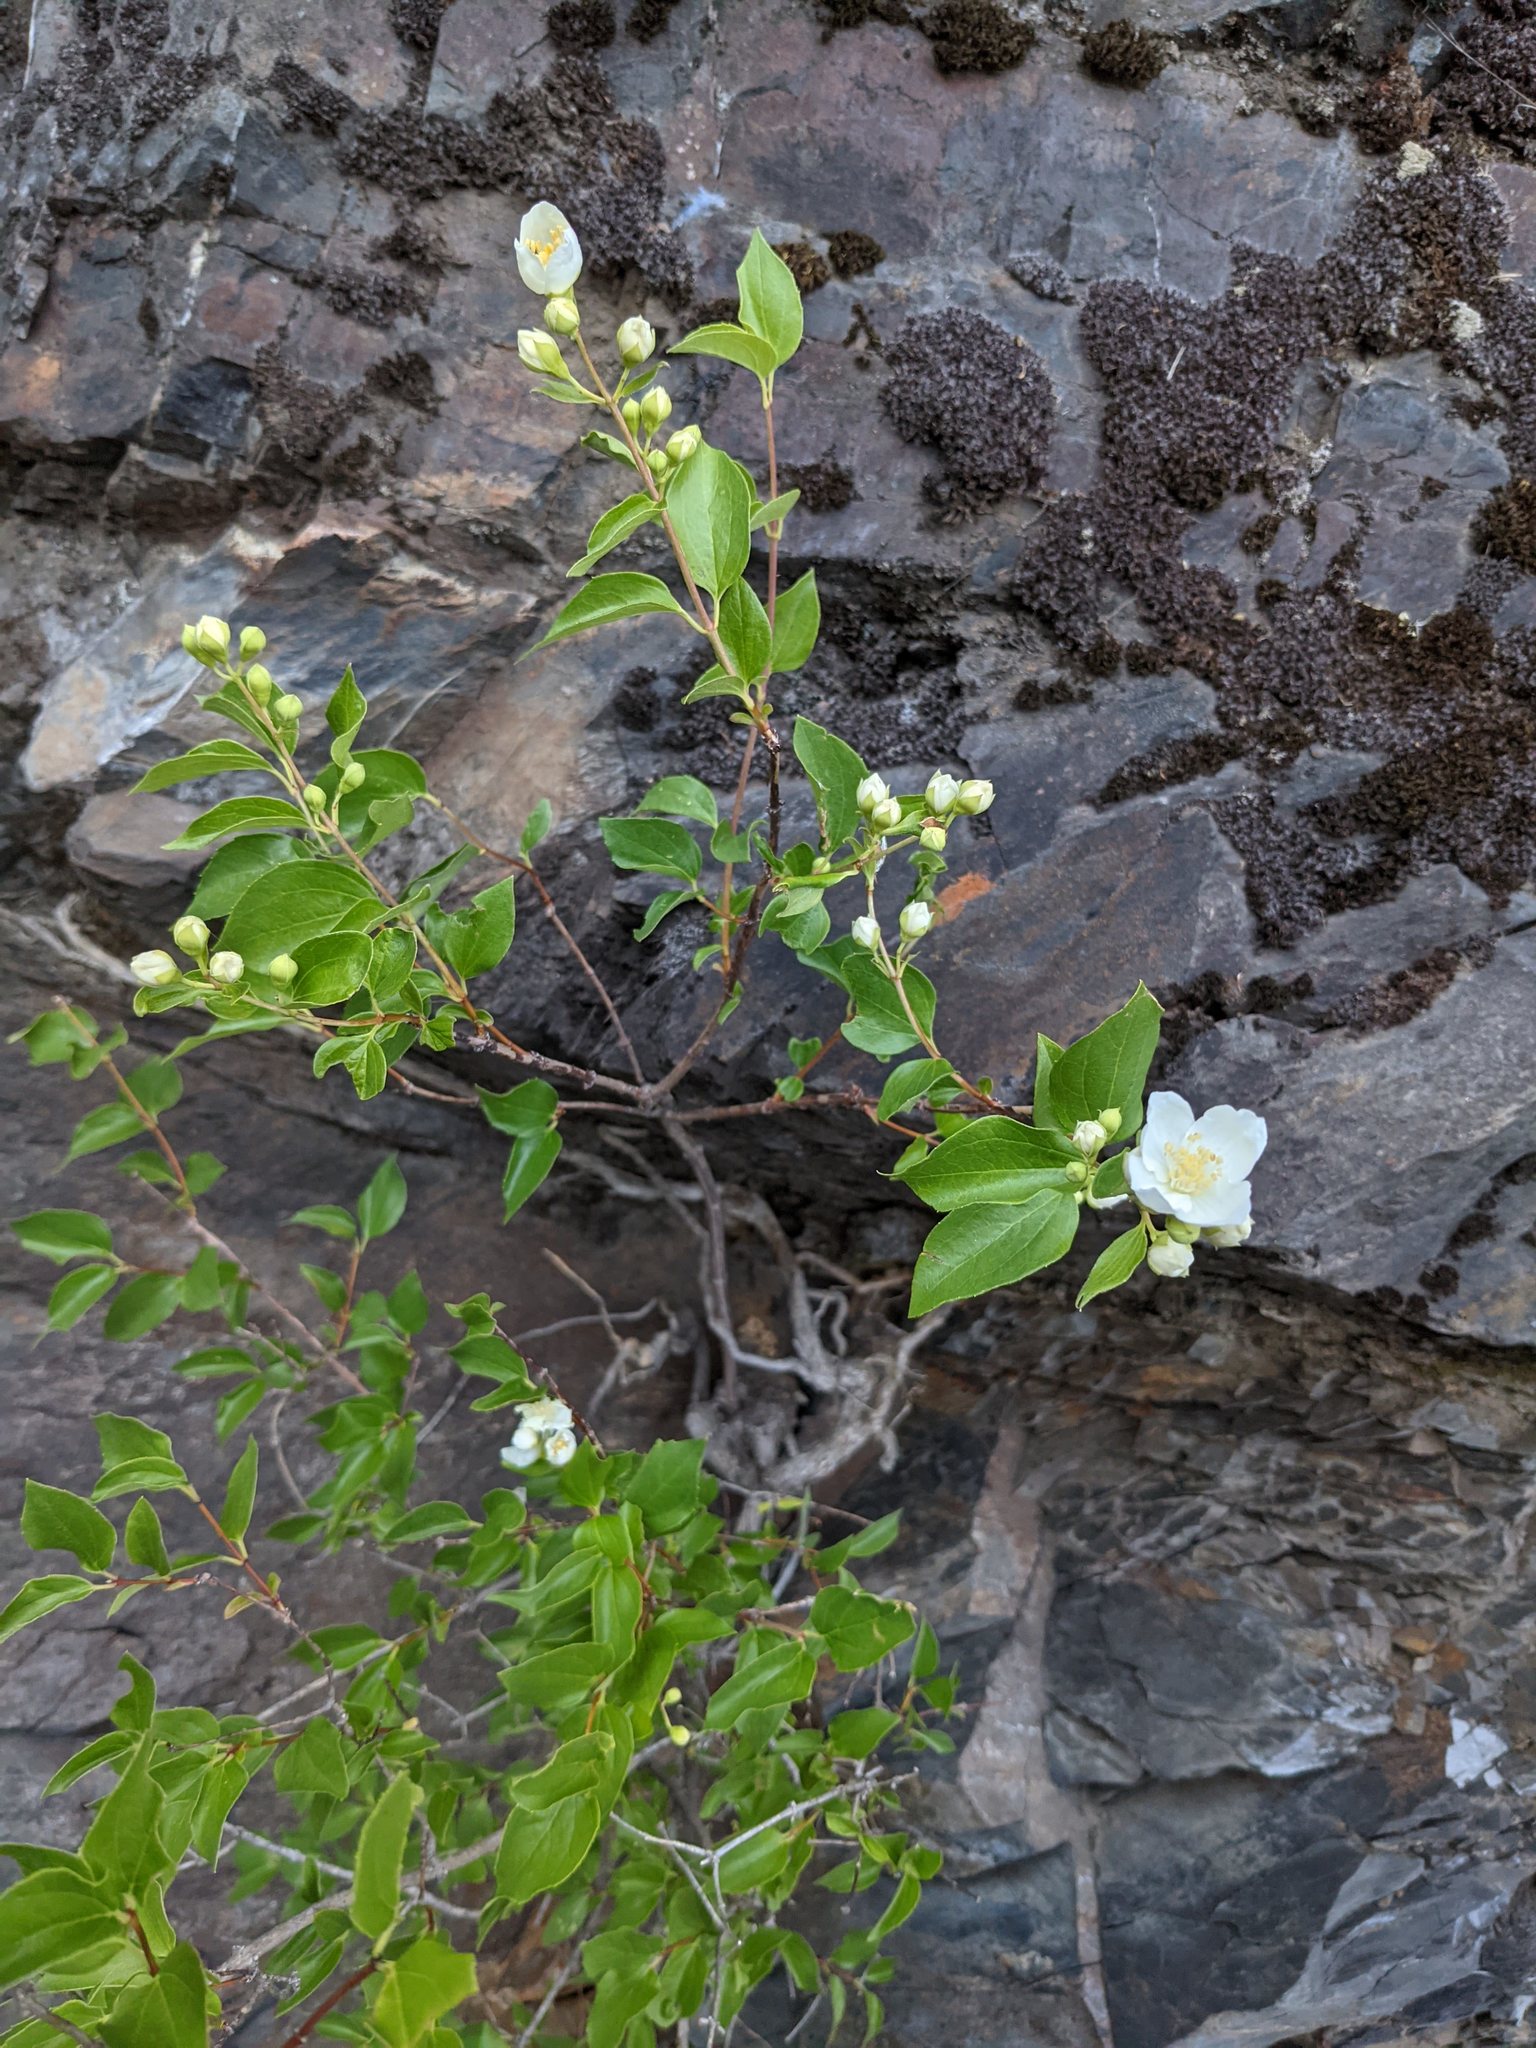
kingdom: Plantae
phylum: Tracheophyta
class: Magnoliopsida
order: Cornales
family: Hydrangeaceae
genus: Philadelphus
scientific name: Philadelphus lewisii
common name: Lewis's mock orange
